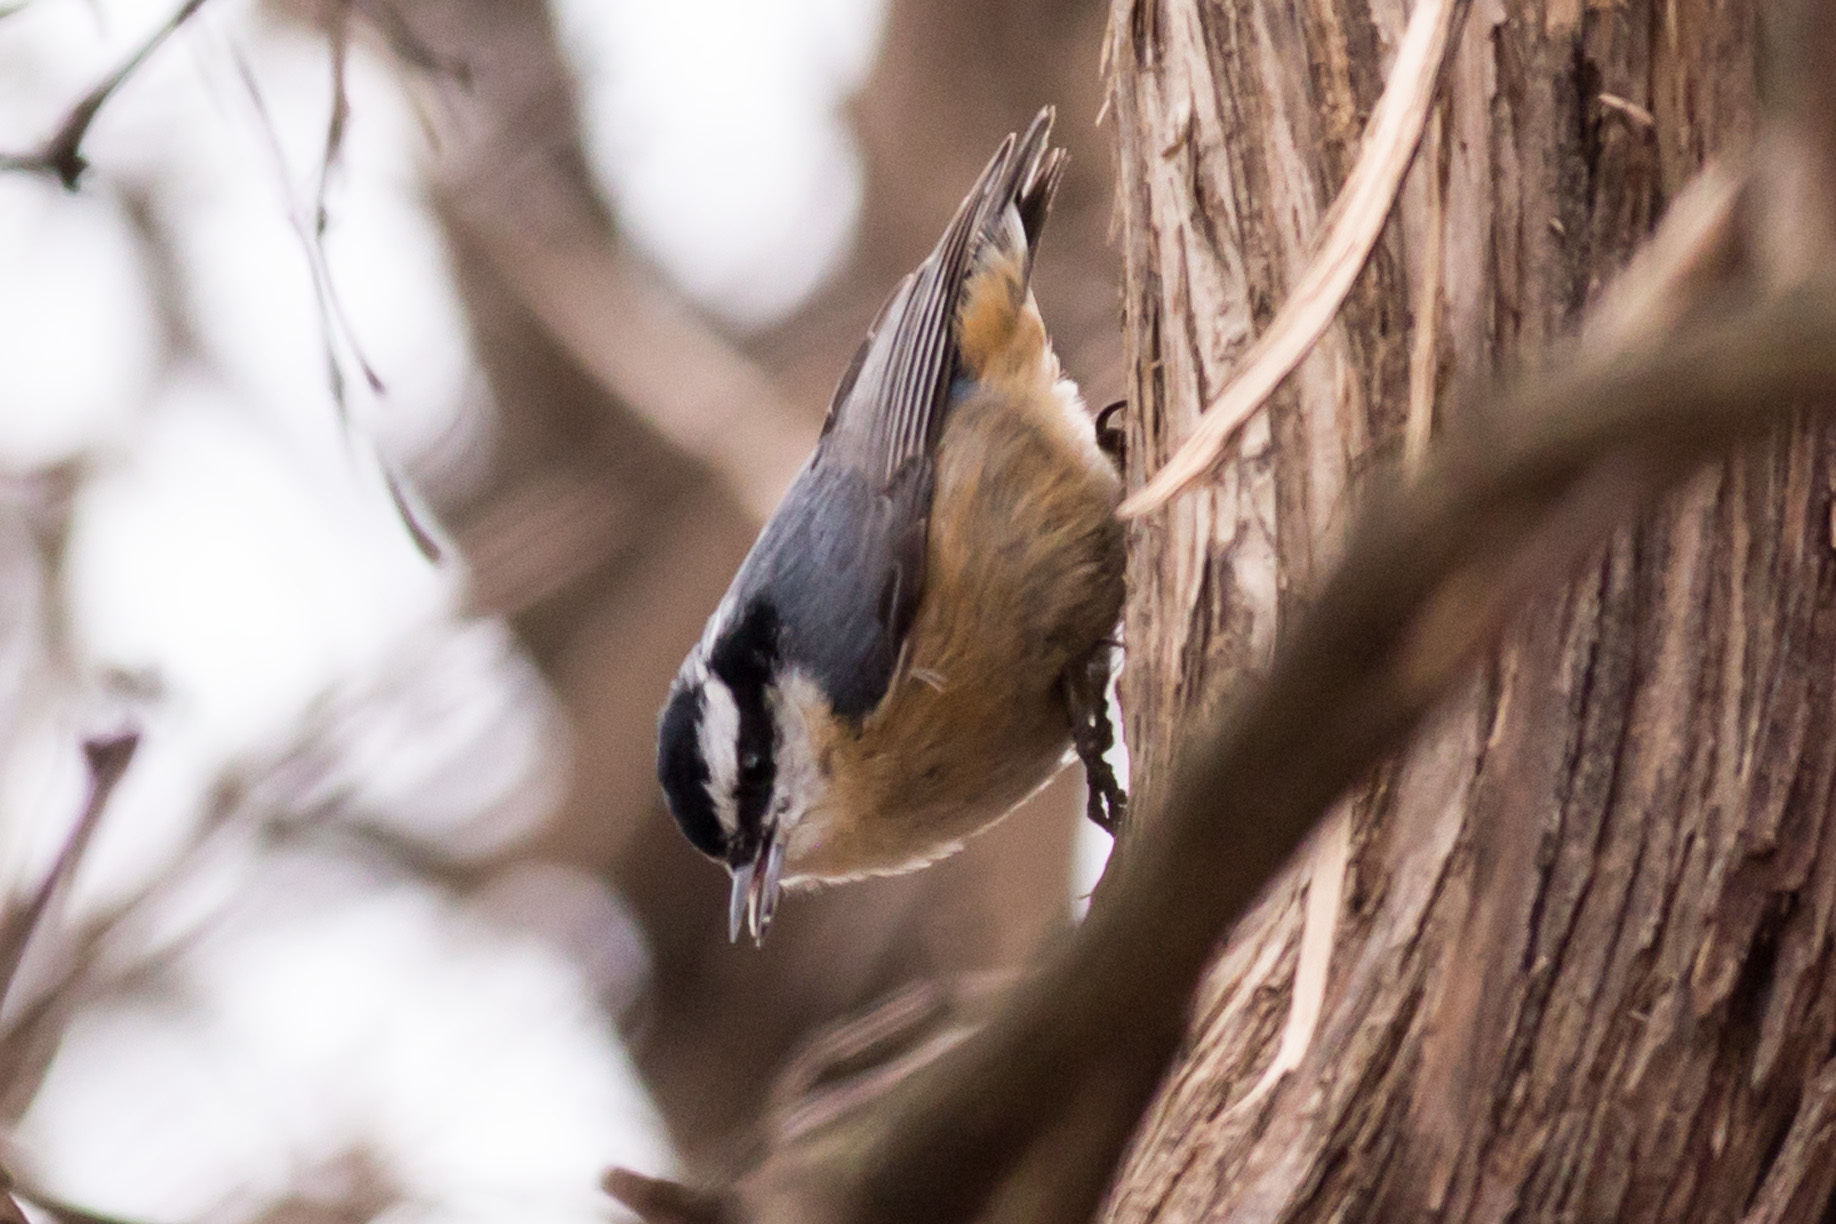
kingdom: Animalia
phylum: Chordata
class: Aves
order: Passeriformes
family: Sittidae
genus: Sitta
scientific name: Sitta canadensis
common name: Red-breasted nuthatch
